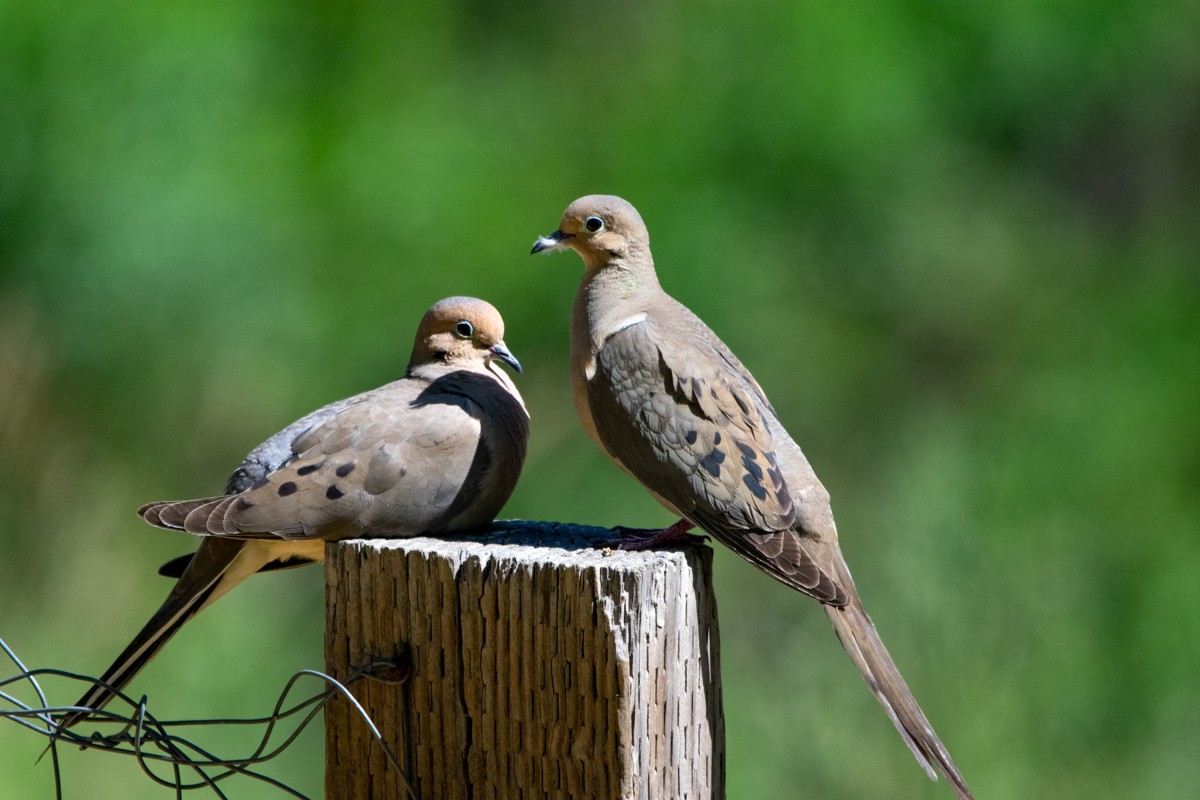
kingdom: Animalia
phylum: Chordata
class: Aves
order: Columbiformes
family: Columbidae
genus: Zenaida
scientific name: Zenaida macroura
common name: Mourning dove
